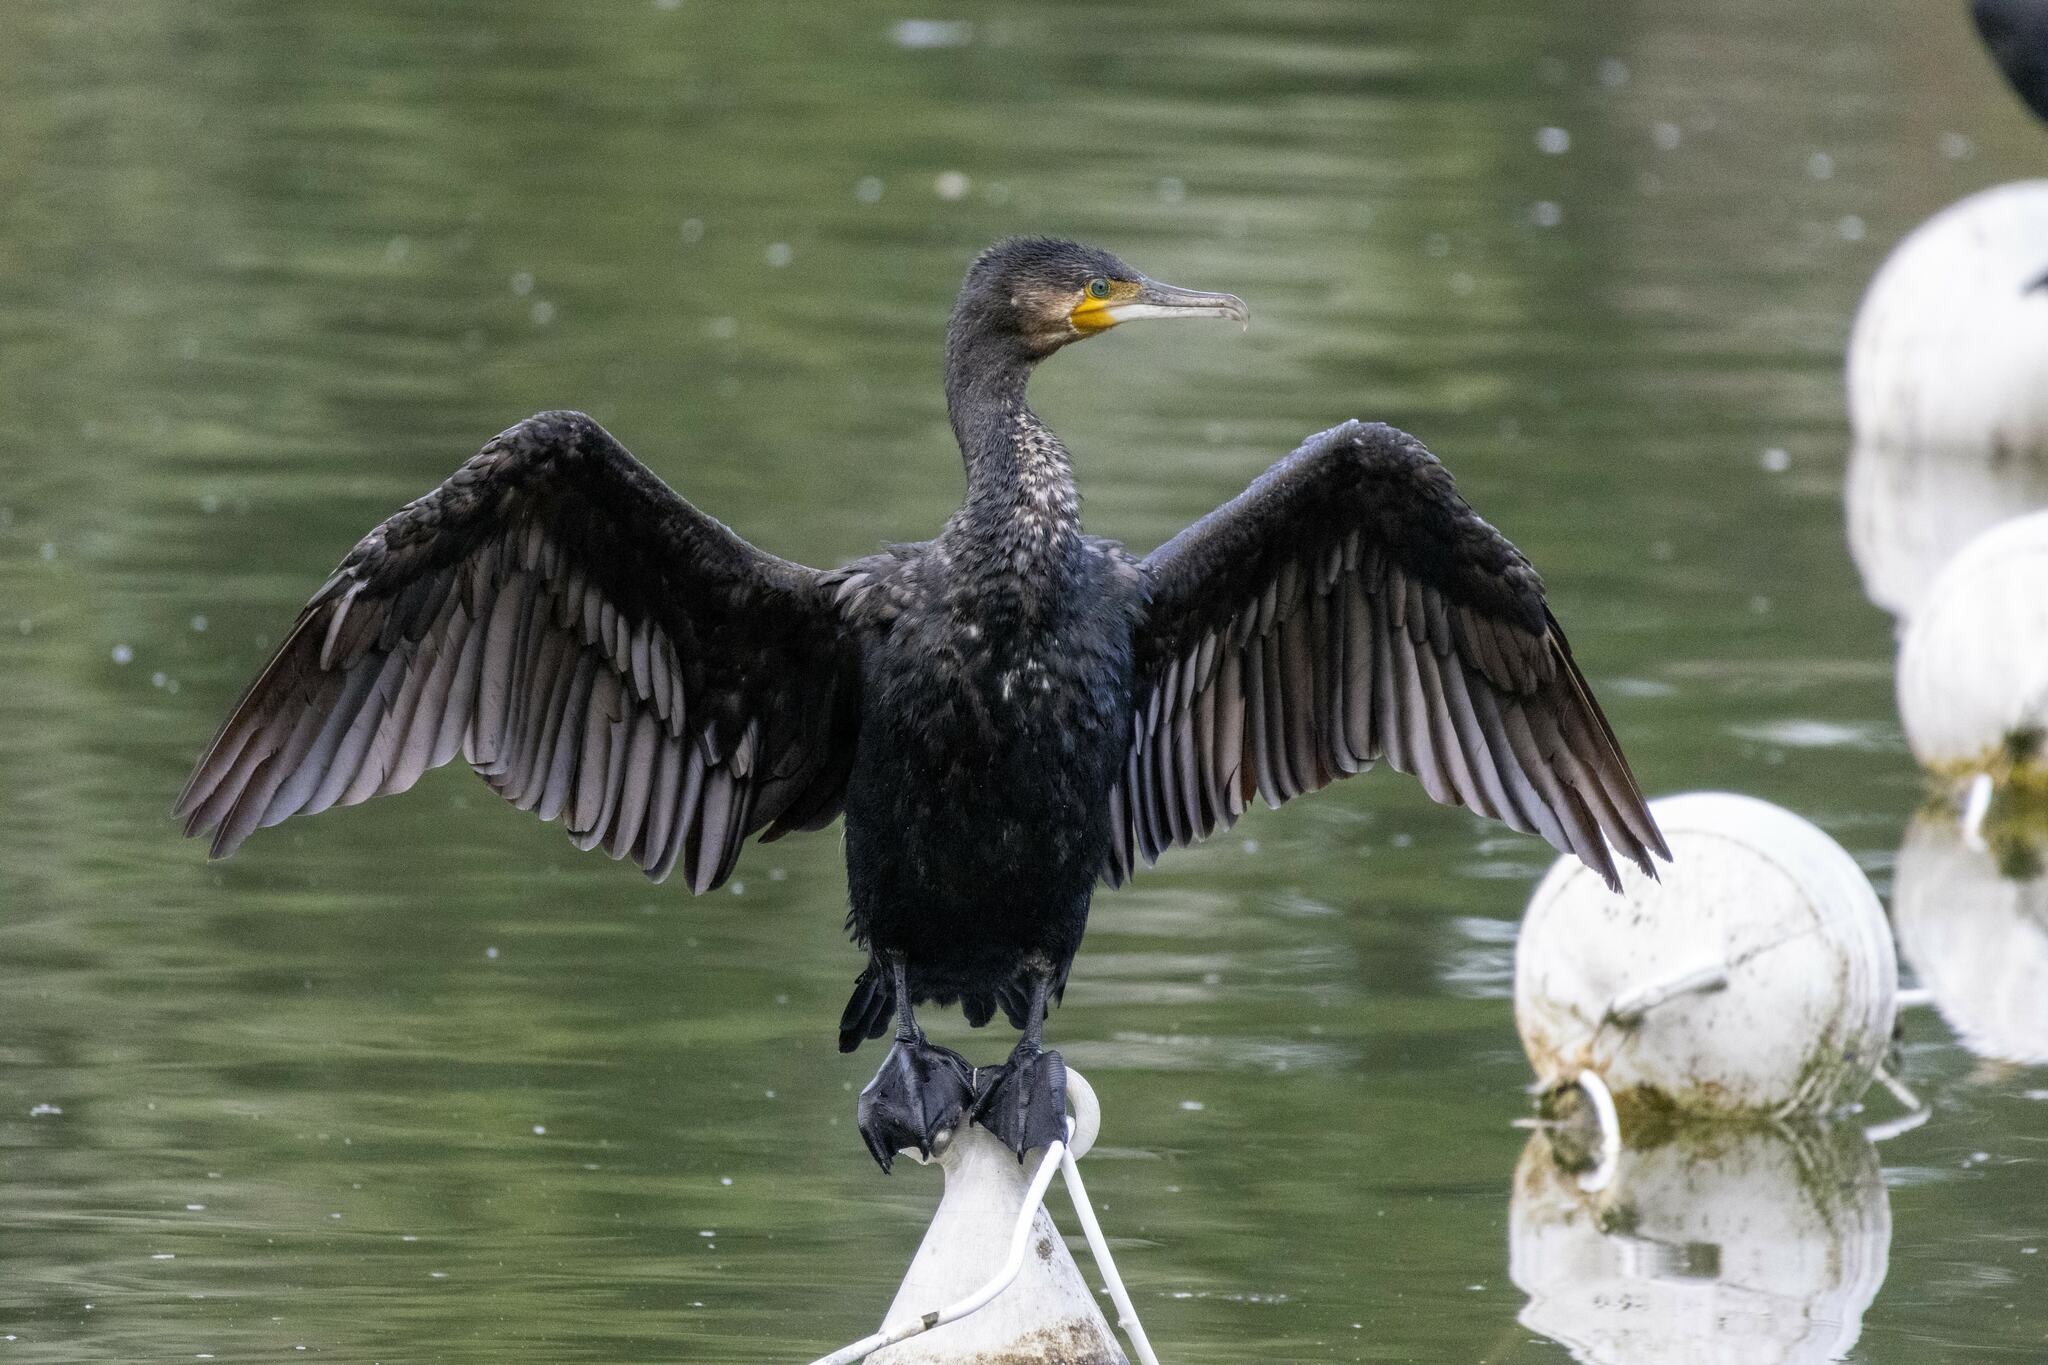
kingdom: Animalia
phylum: Chordata
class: Aves
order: Suliformes
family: Phalacrocoracidae
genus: Phalacrocorax
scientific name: Phalacrocorax carbo
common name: Great cormorant
